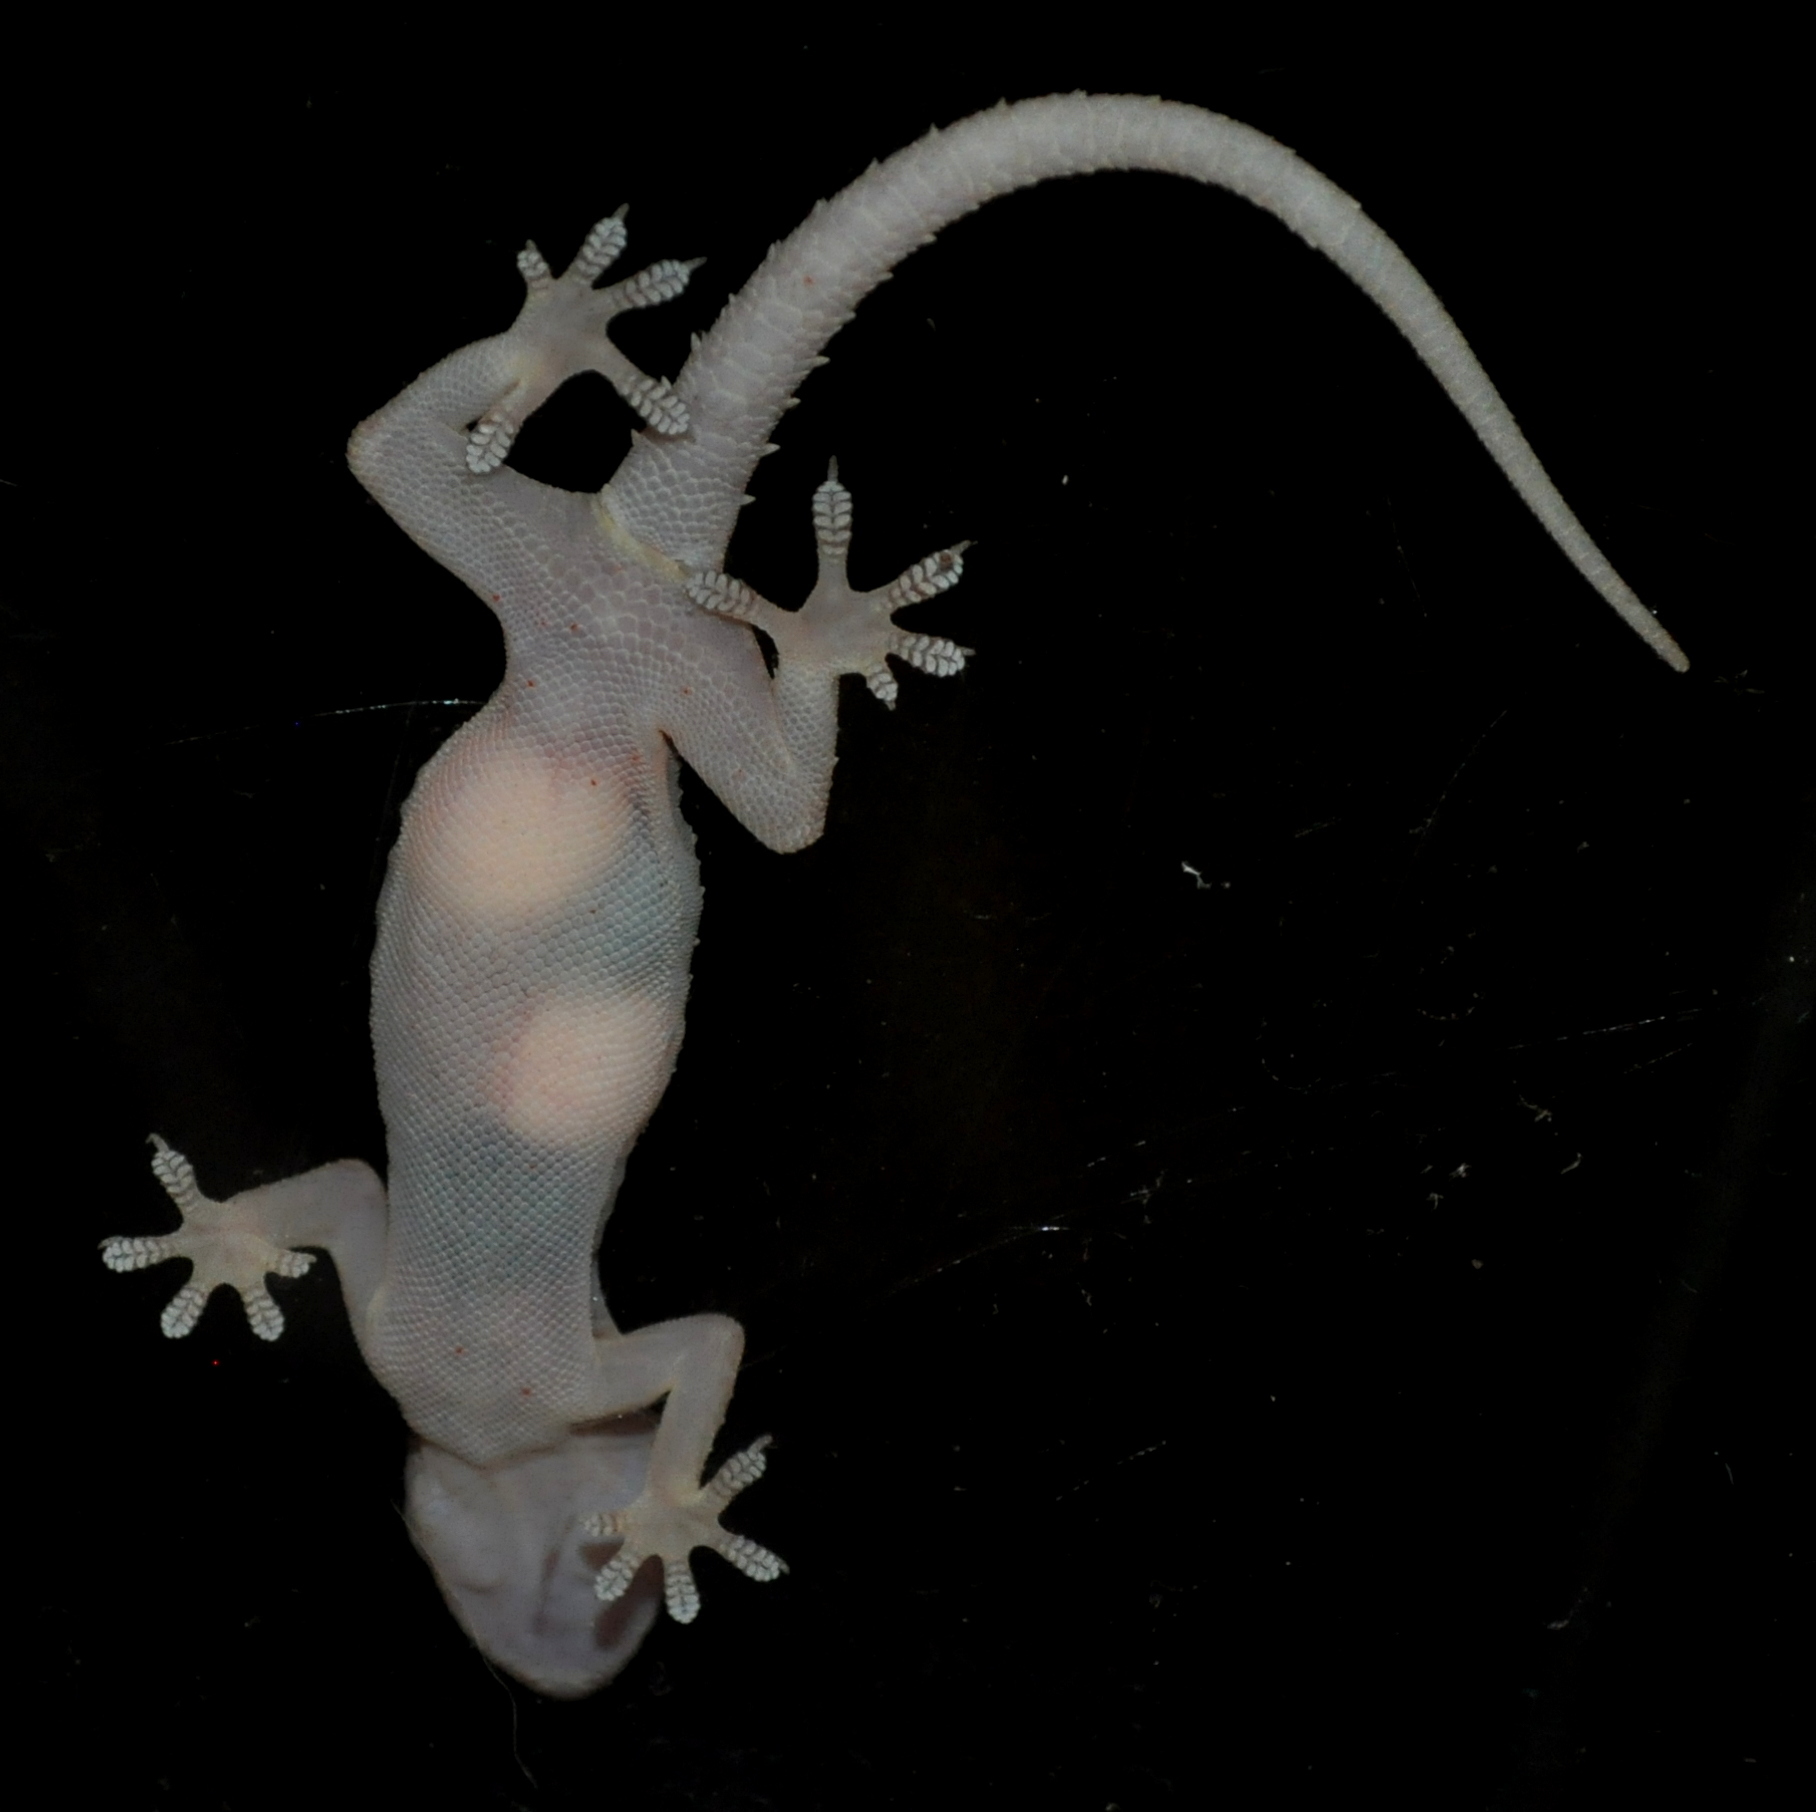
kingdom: Animalia
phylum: Chordata
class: Squamata
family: Gekkonidae
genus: Hemidactylus
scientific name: Hemidactylus mabouia
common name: House gecko
